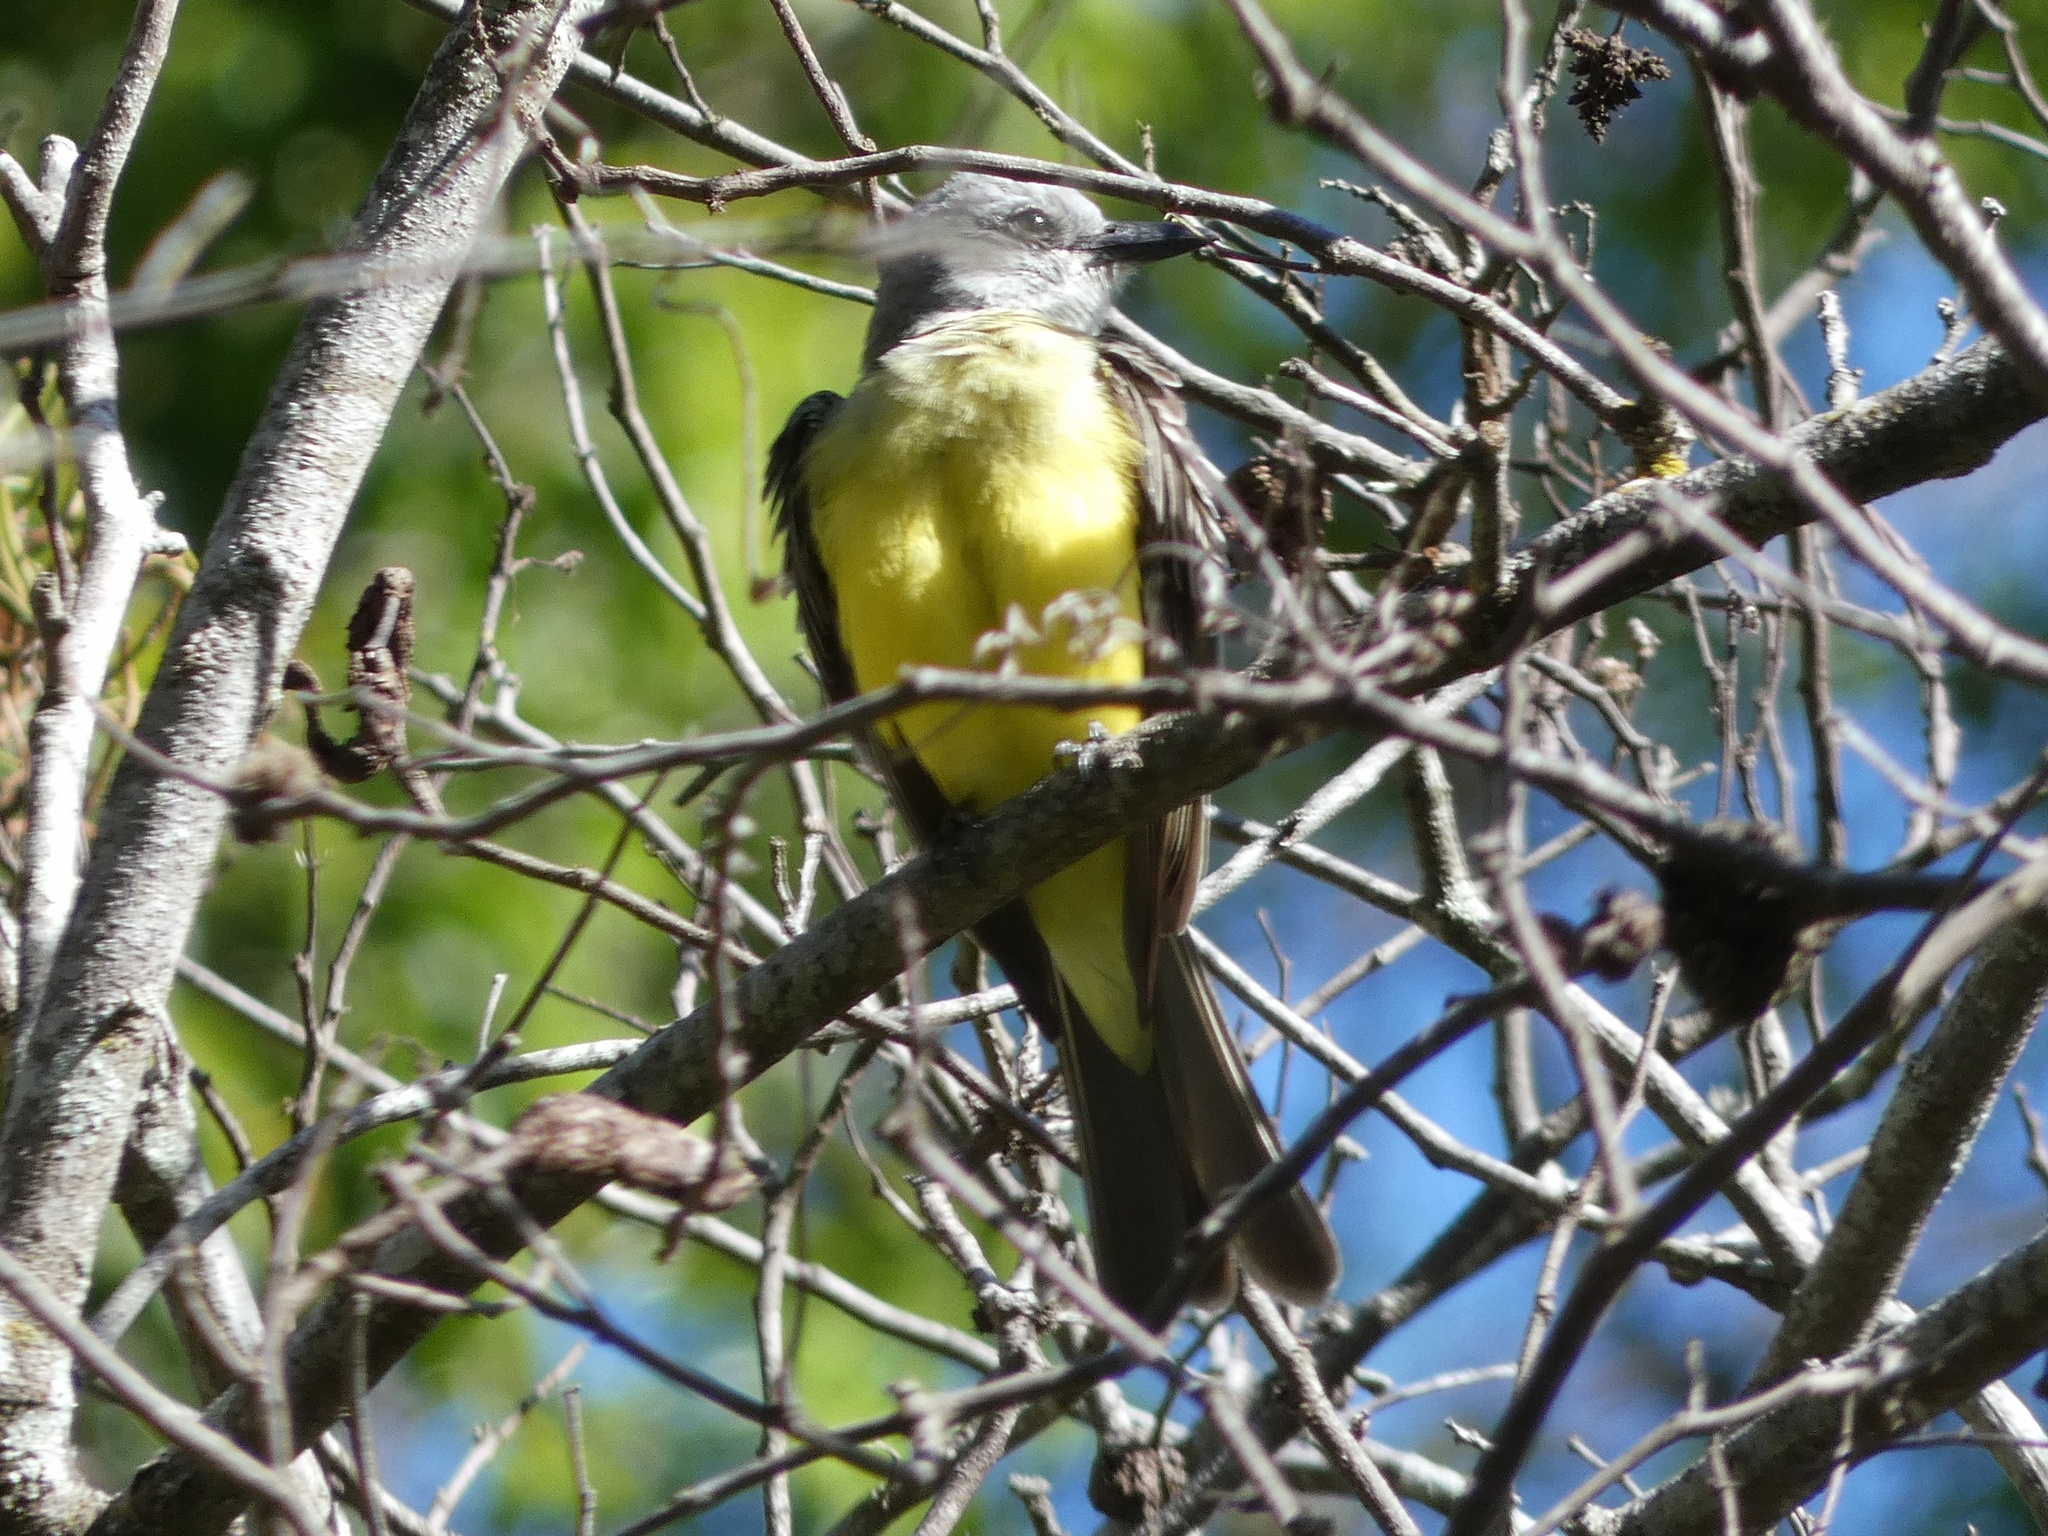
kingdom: Animalia
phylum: Chordata
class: Aves
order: Passeriformes
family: Tyrannidae
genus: Tyrannus
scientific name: Tyrannus melancholicus
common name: Tropical kingbird
